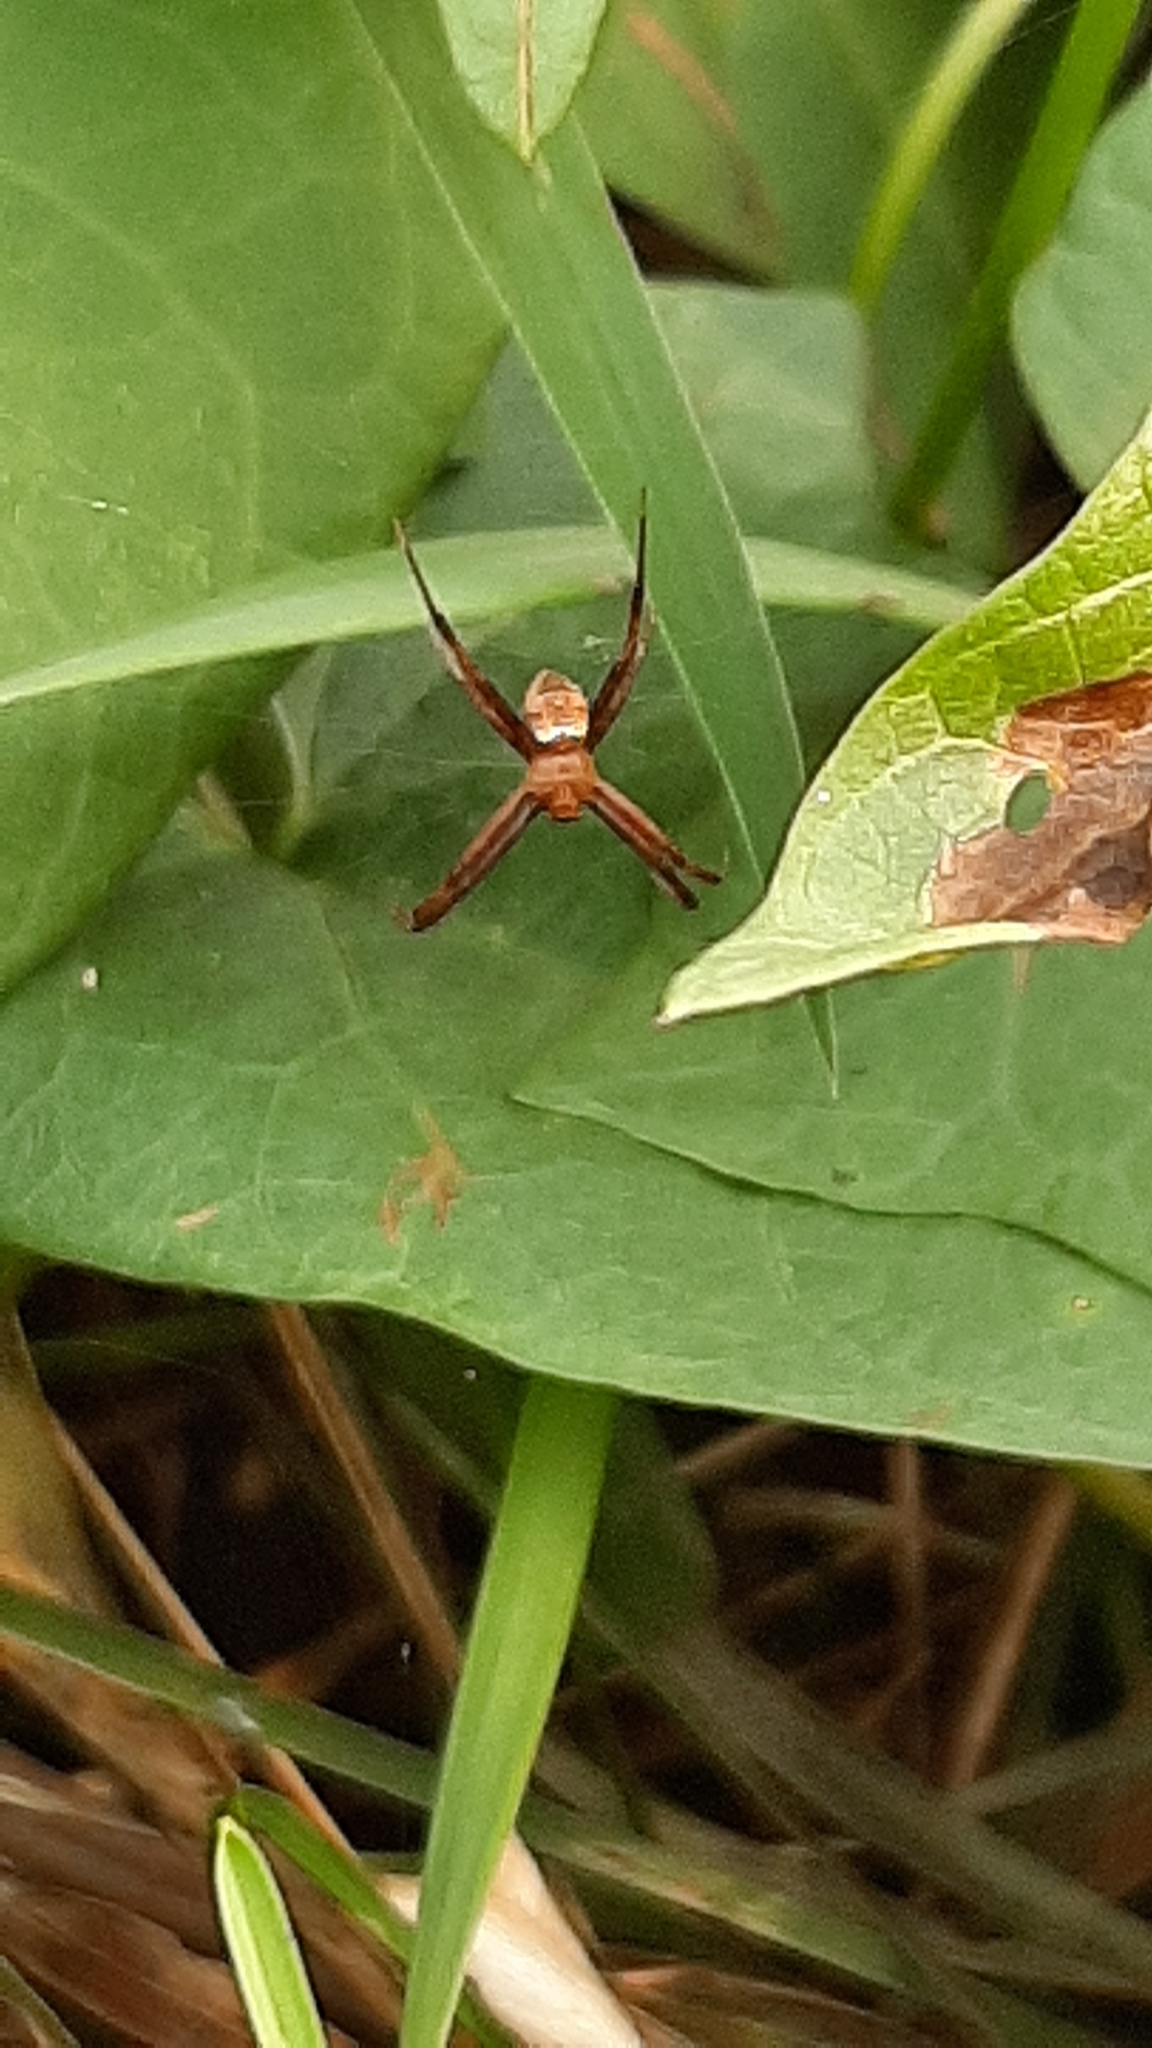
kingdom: Animalia
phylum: Arthropoda
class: Arachnida
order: Araneae
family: Araneidae
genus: Gea
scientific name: Gea heptagon
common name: Orb weavers
